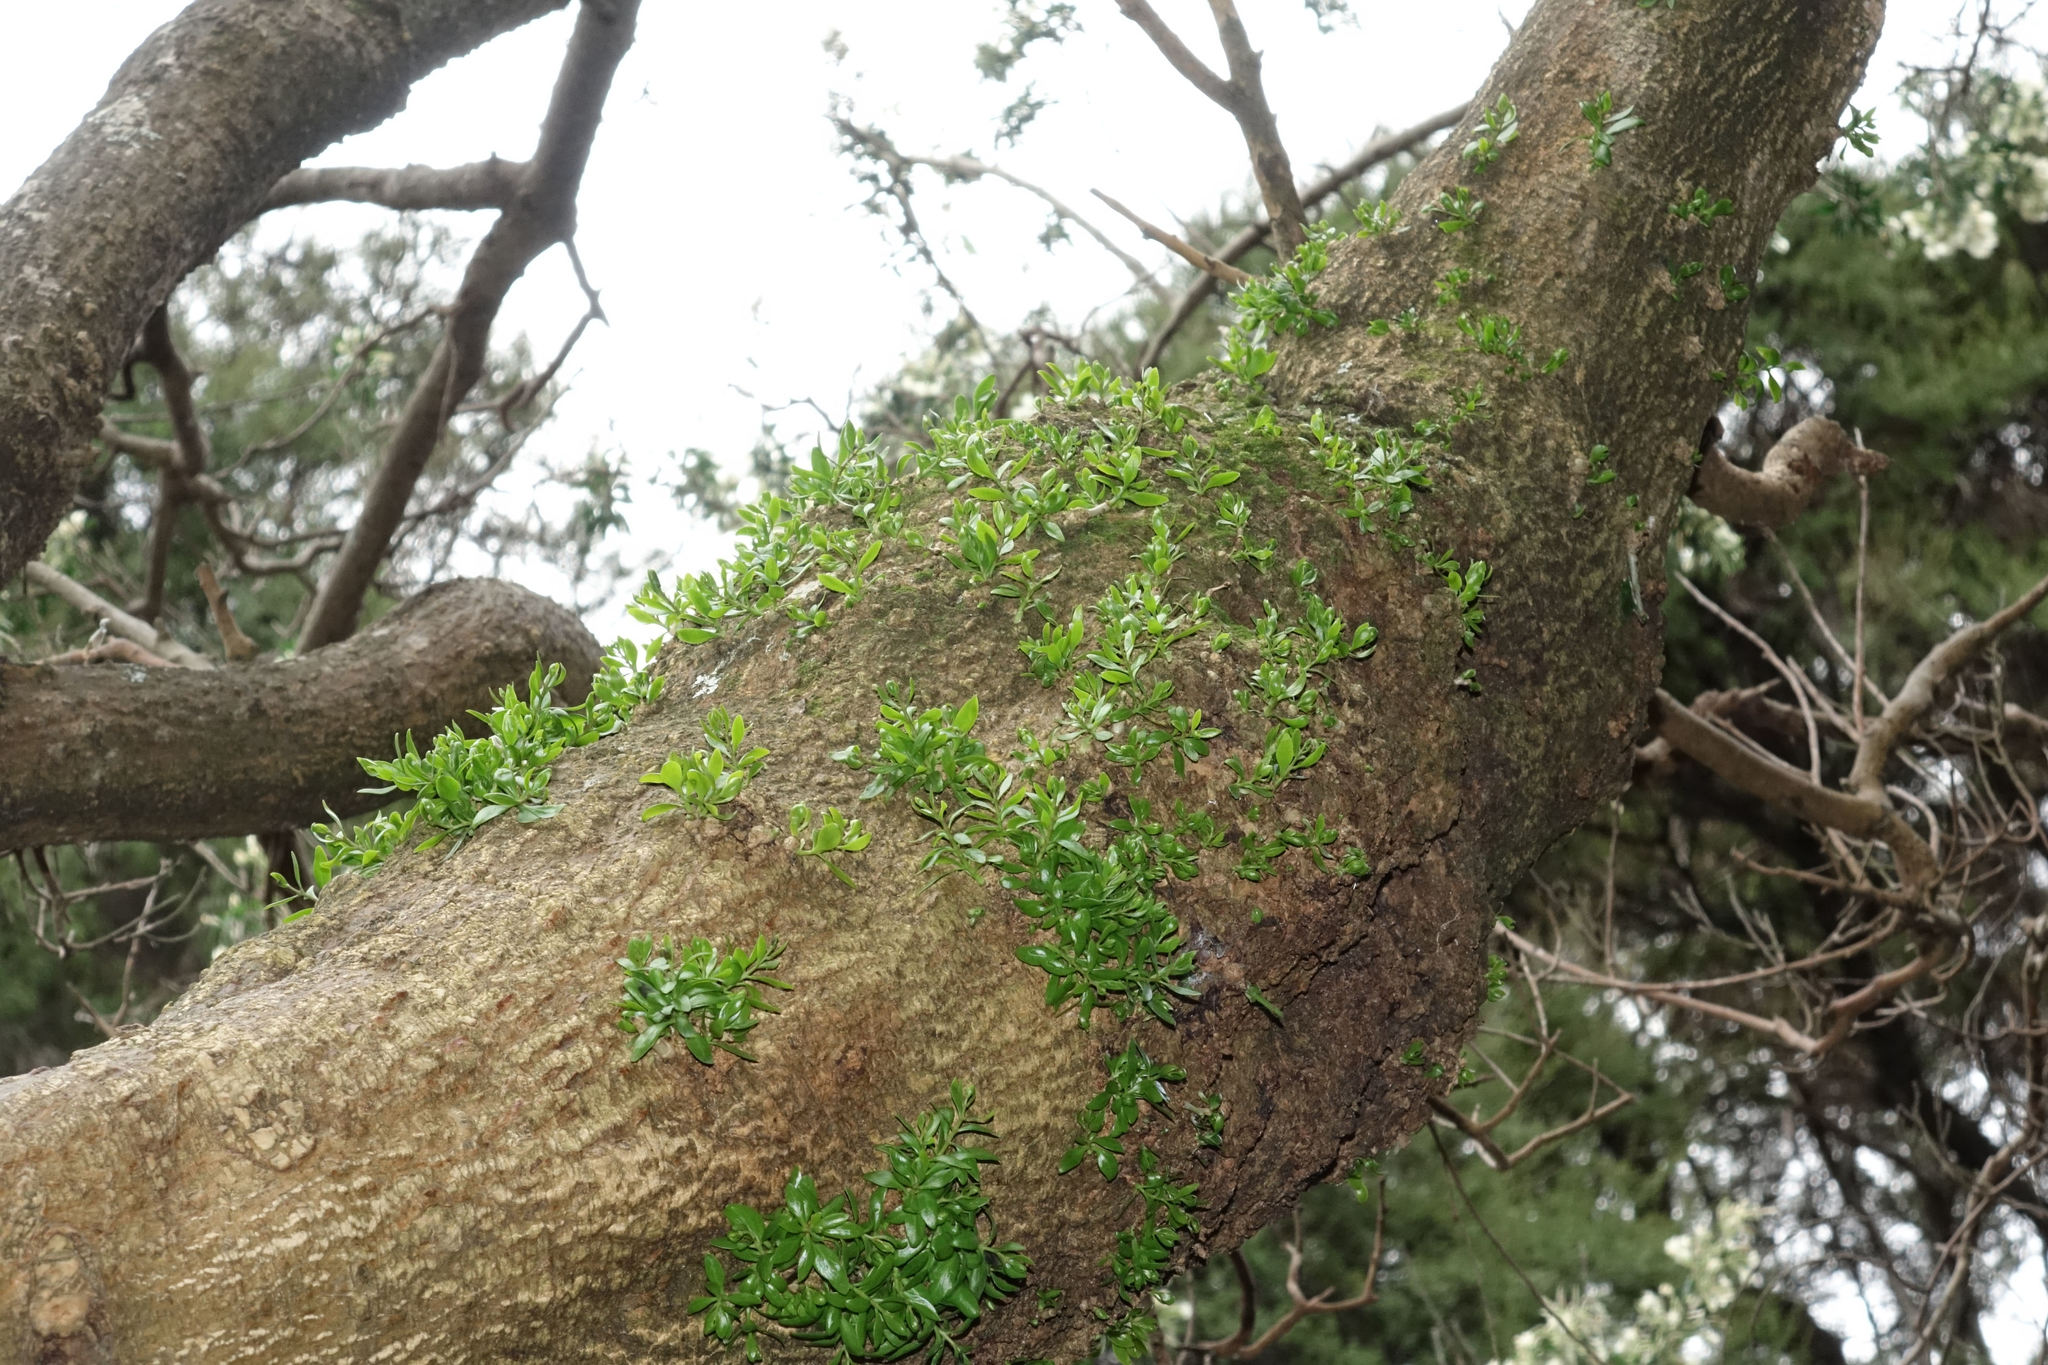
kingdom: Plantae
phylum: Tracheophyta
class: Magnoliopsida
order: Santalales
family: Loranthaceae
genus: Tupeia
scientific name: Tupeia antarctica
